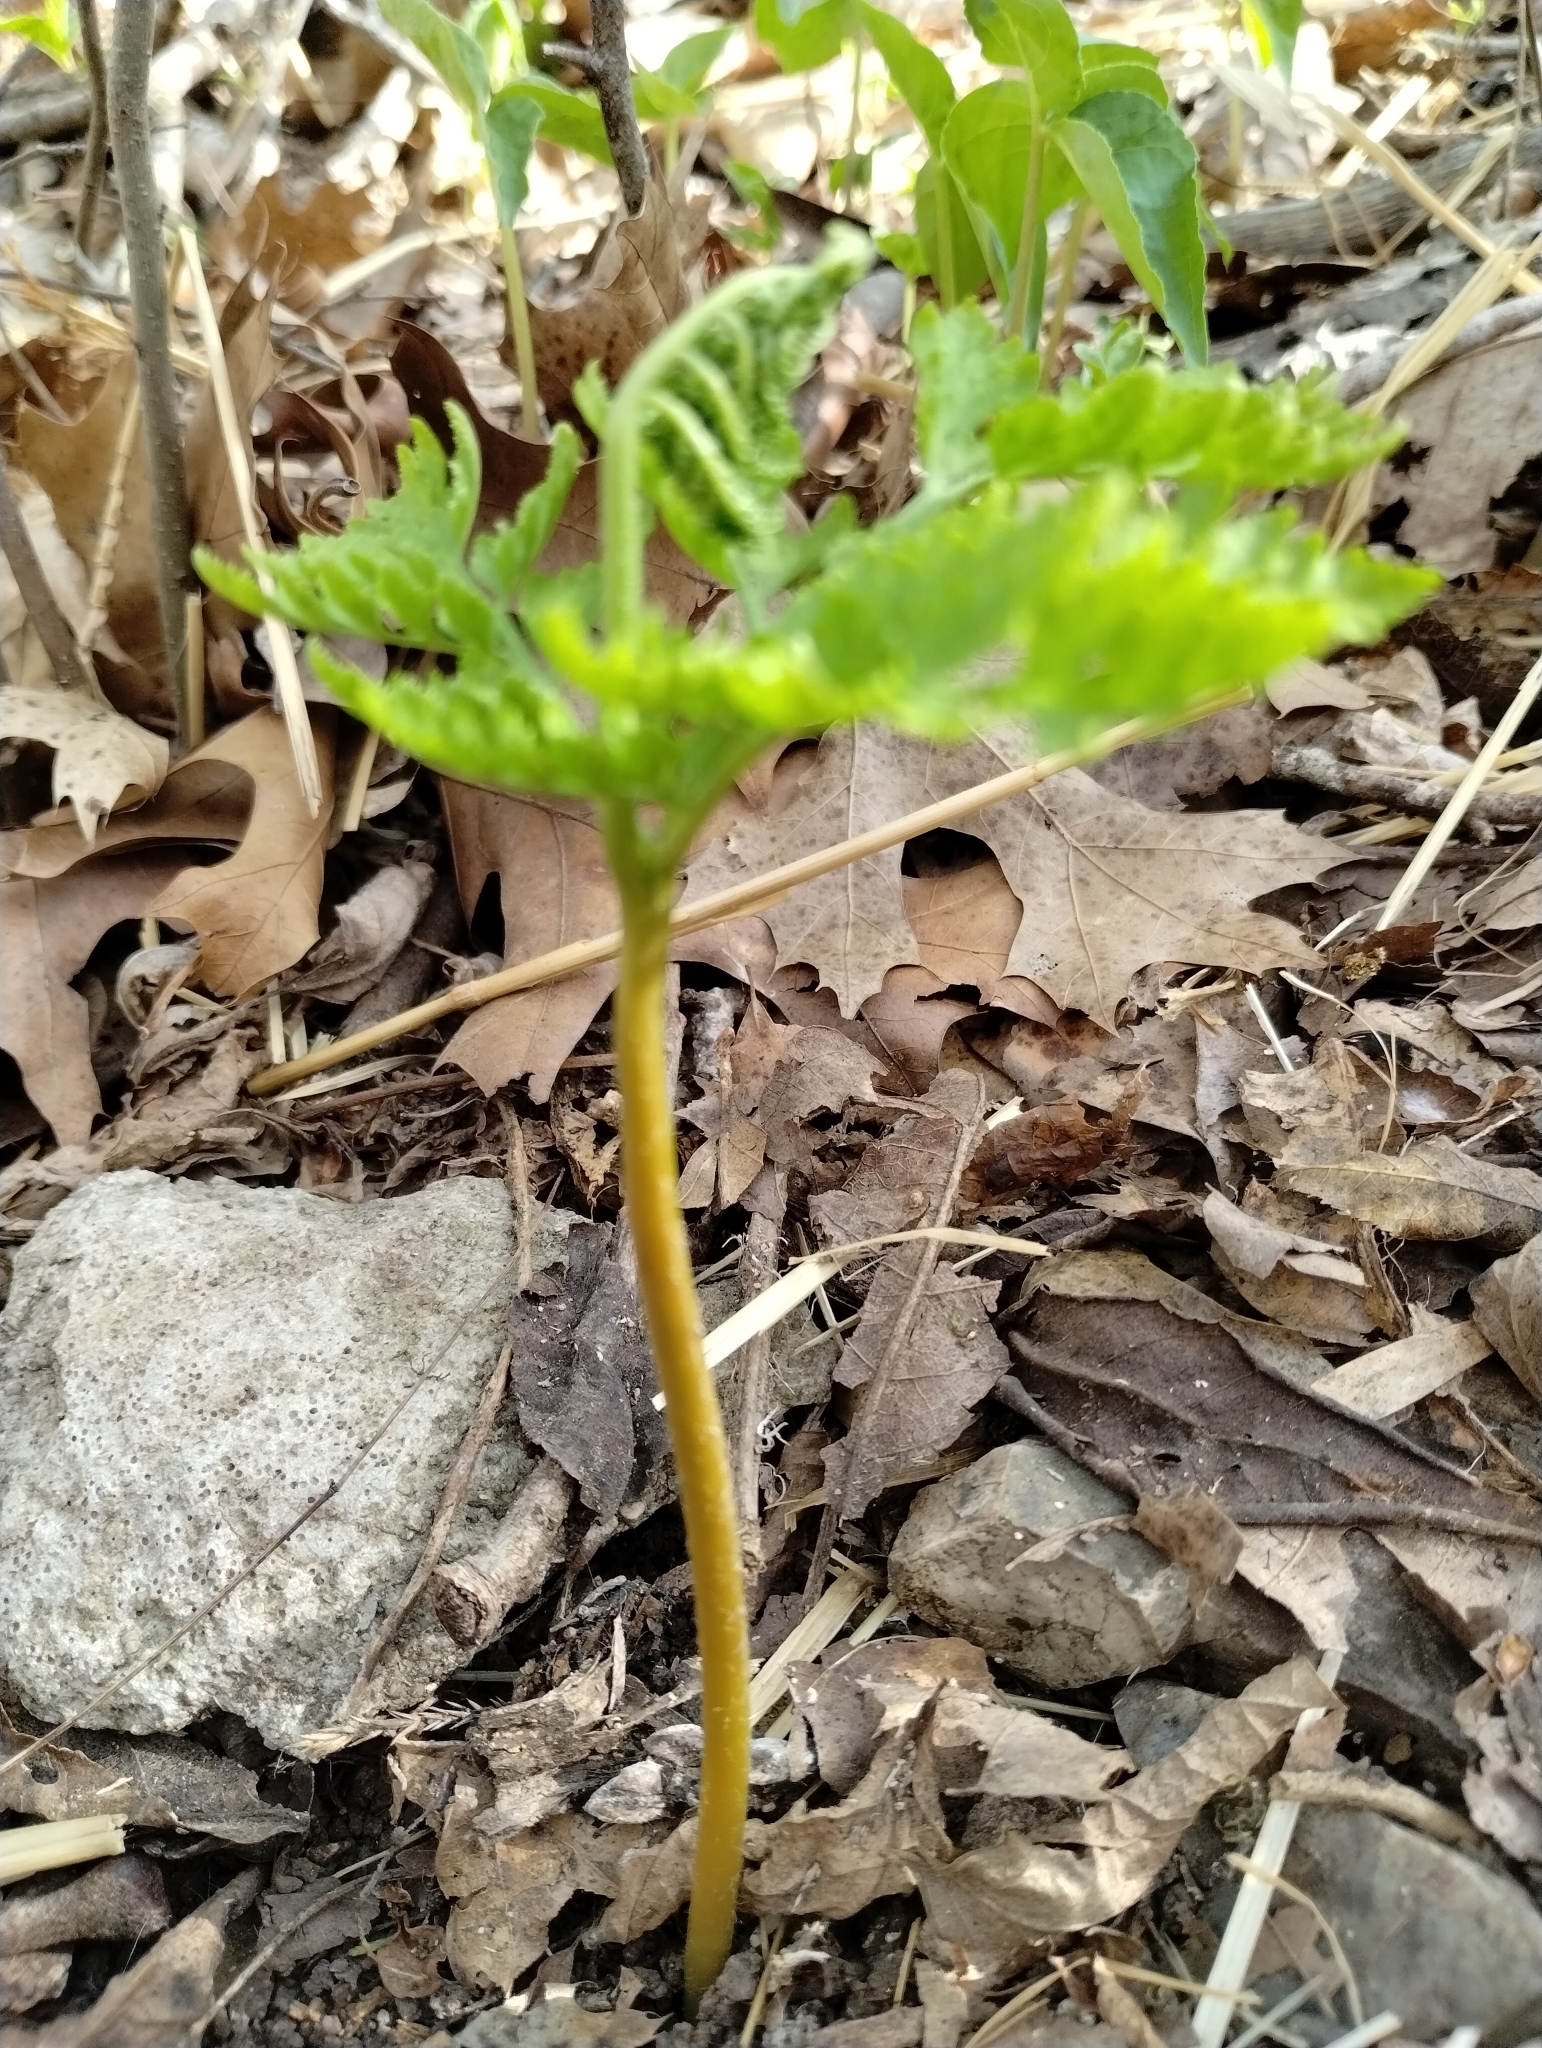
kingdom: Plantae
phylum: Tracheophyta
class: Polypodiopsida
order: Ophioglossales
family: Ophioglossaceae
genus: Botrypus
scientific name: Botrypus virginianus
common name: Common grapefern
